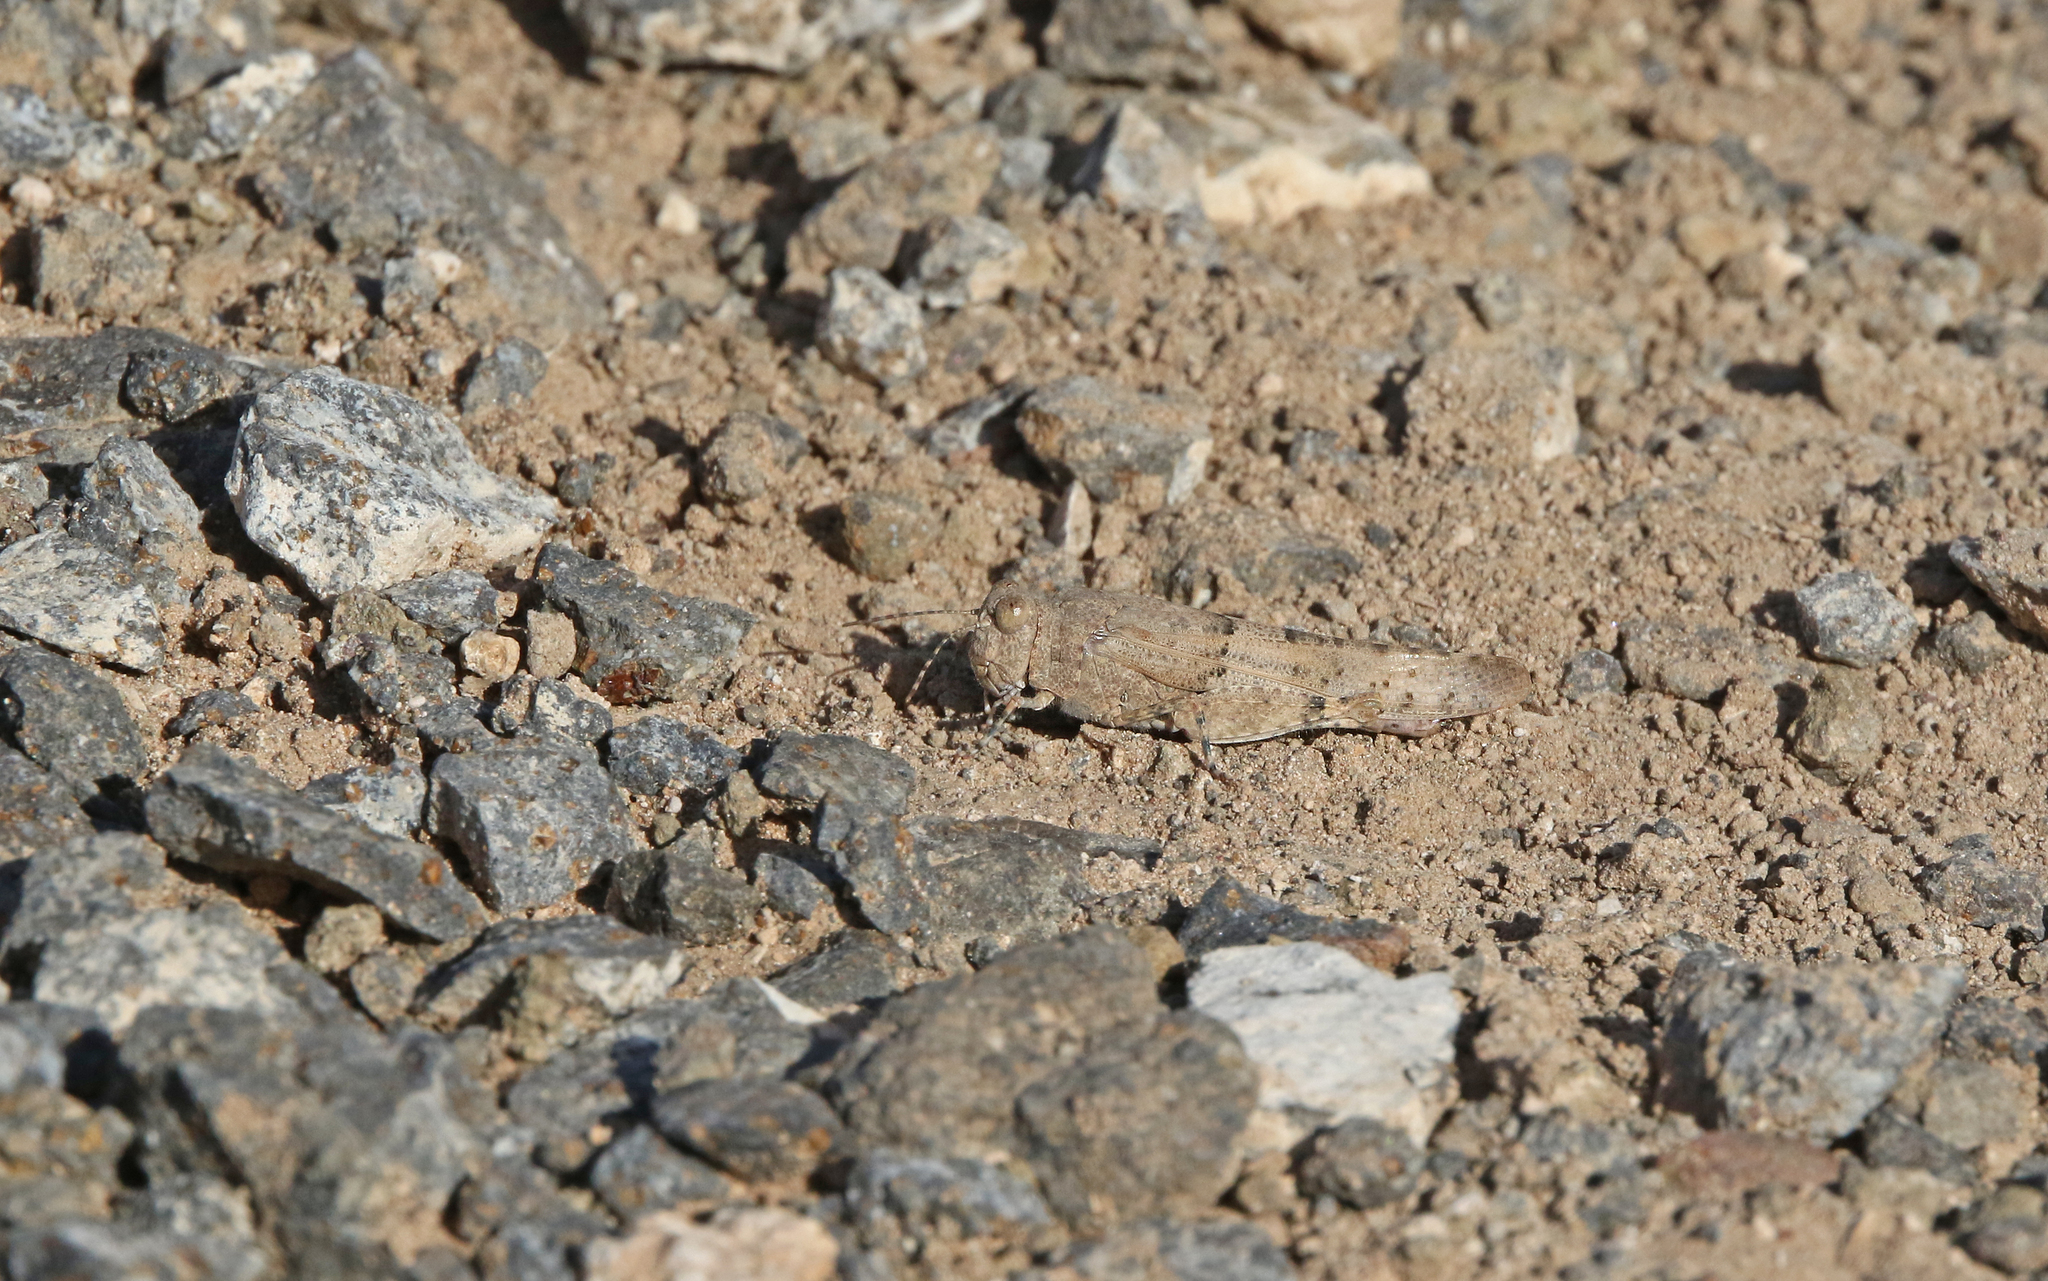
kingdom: Animalia
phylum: Arthropoda
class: Insecta
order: Orthoptera
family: Acrididae
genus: Sphingonotus
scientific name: Sphingonotus sublaevis
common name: Red sand grasshopper
